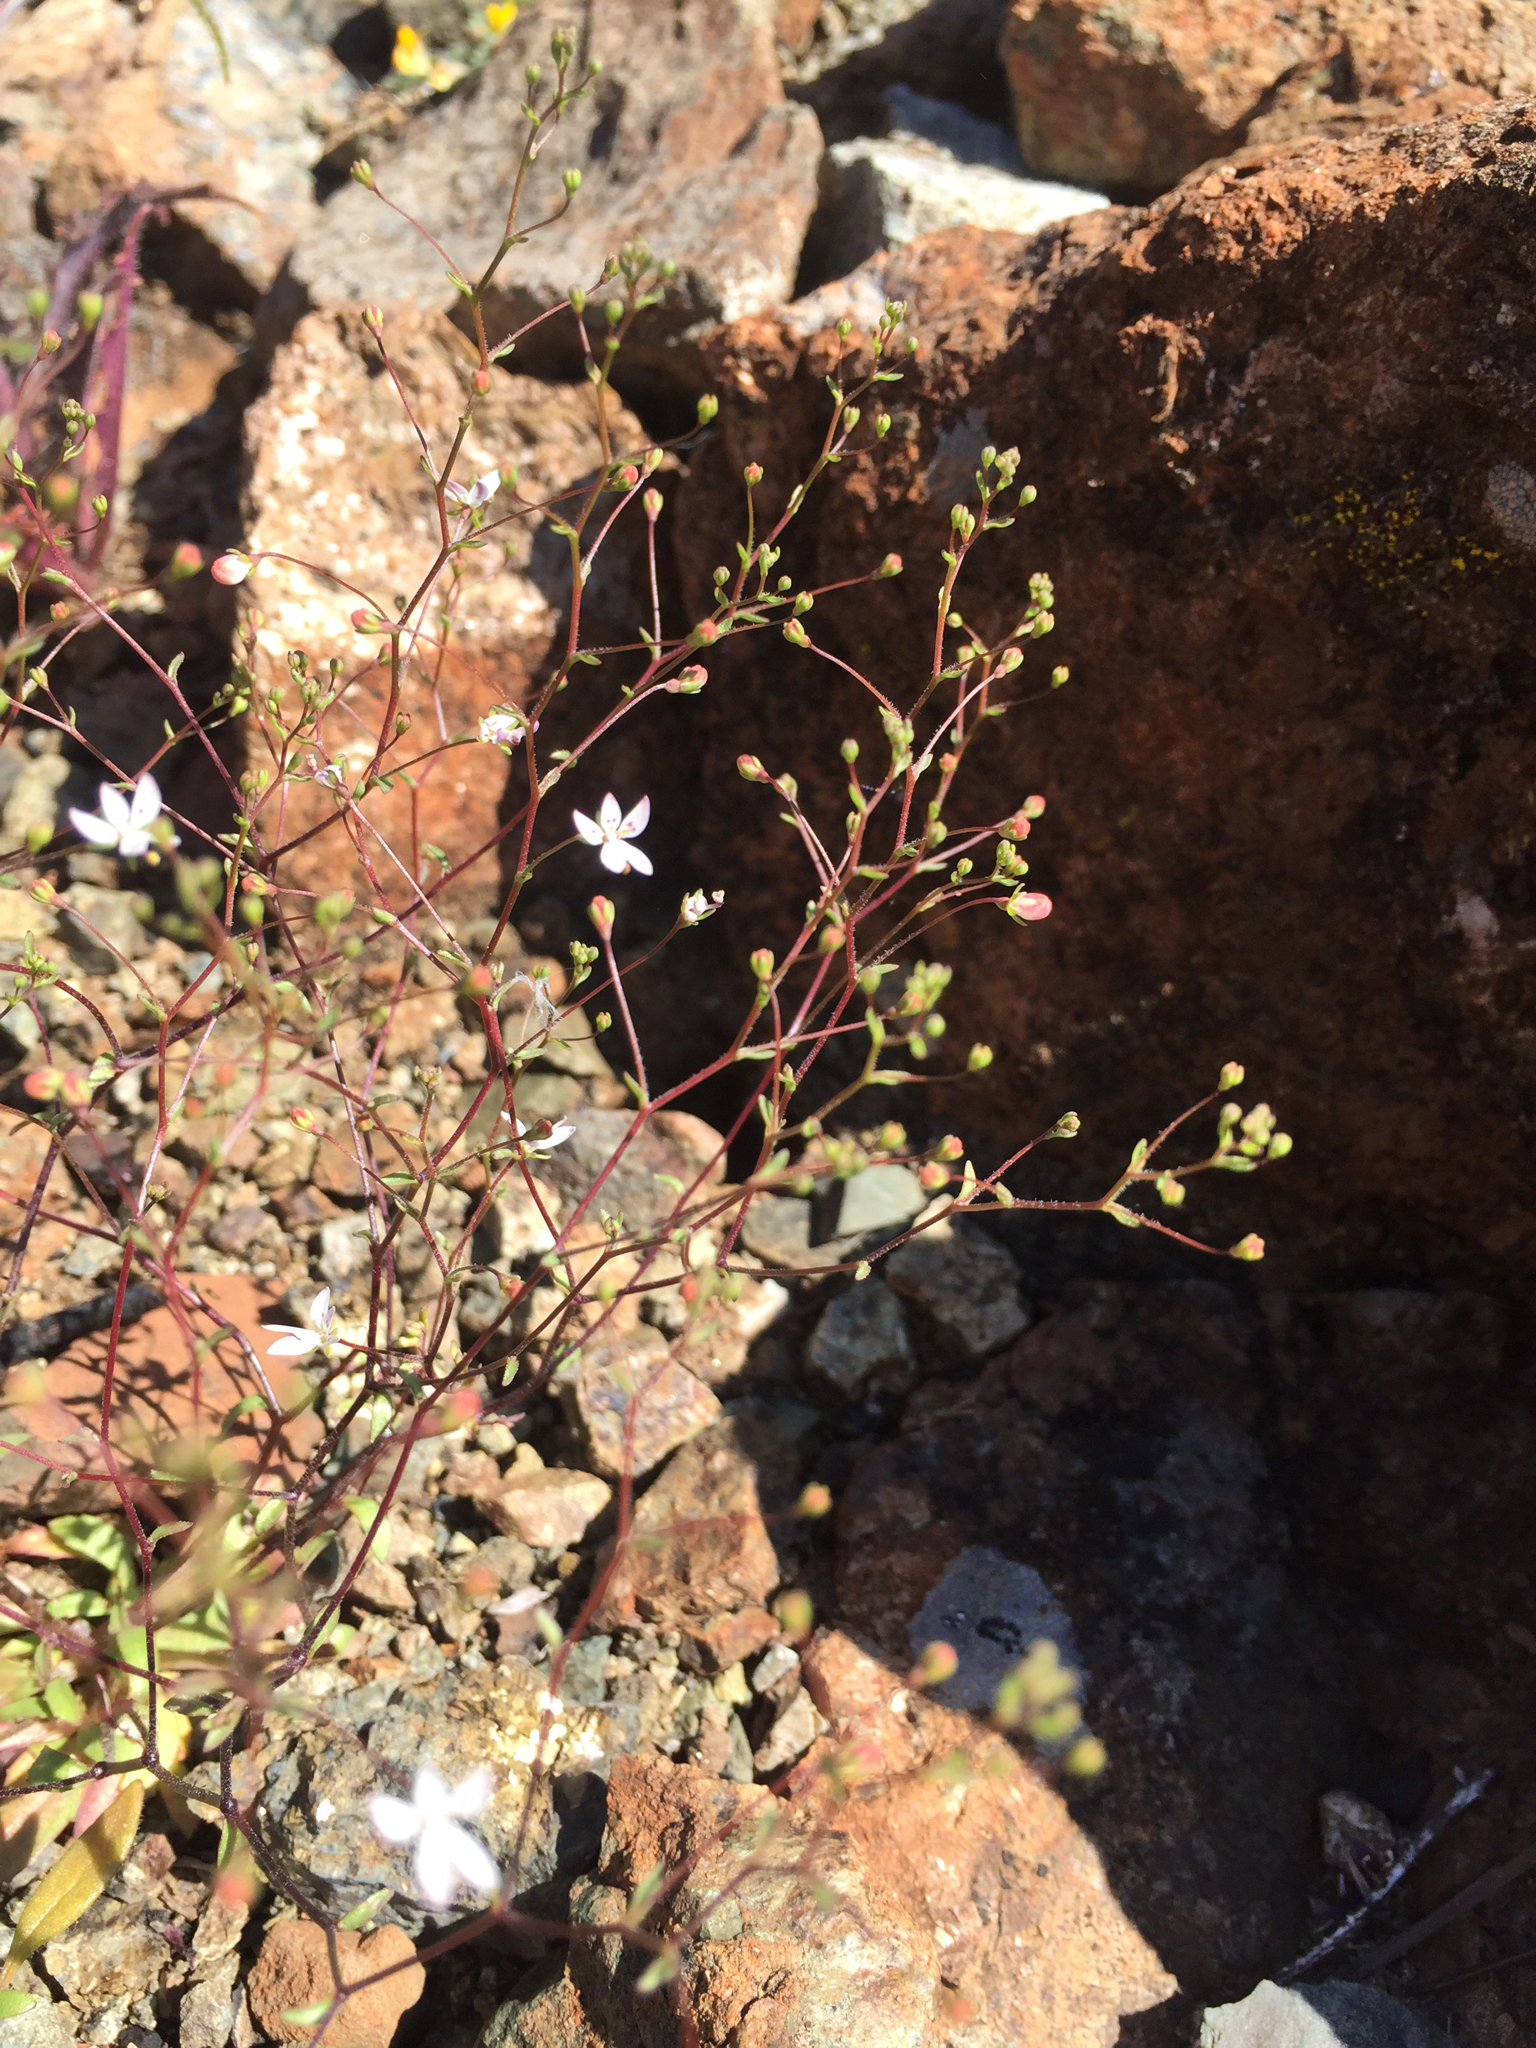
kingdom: Plantae
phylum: Tracheophyta
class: Magnoliopsida
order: Asterales
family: Campanulaceae
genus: Nemacladus
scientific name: Nemacladus montanus
